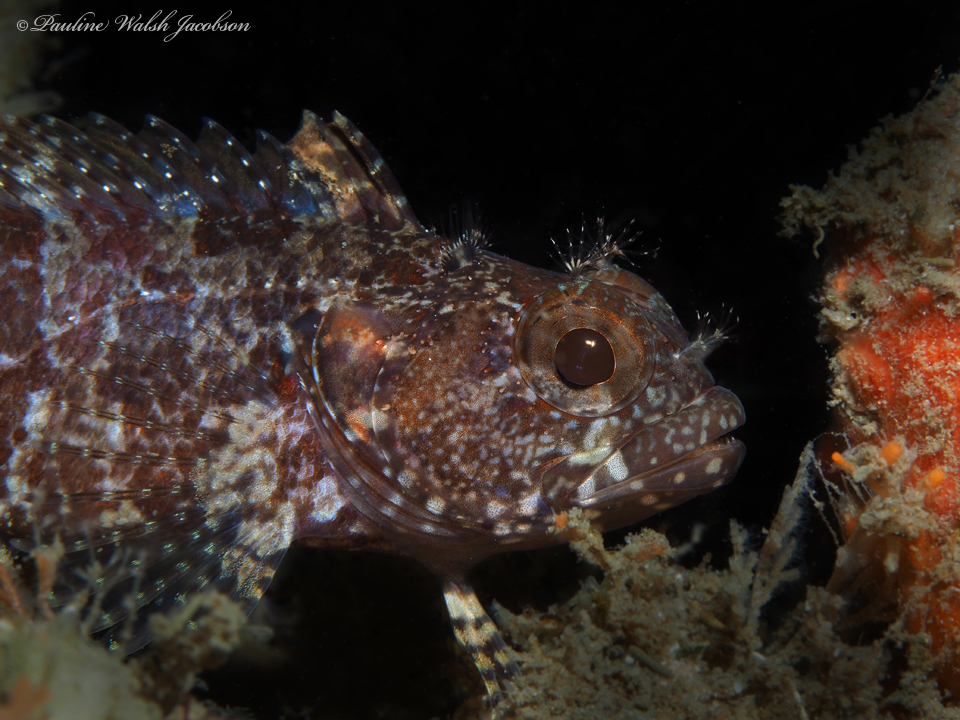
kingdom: Animalia
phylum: Chordata
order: Perciformes
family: Labrisomidae
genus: Gobioclinus
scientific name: Gobioclinus kalisherae
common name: Downy blenny
